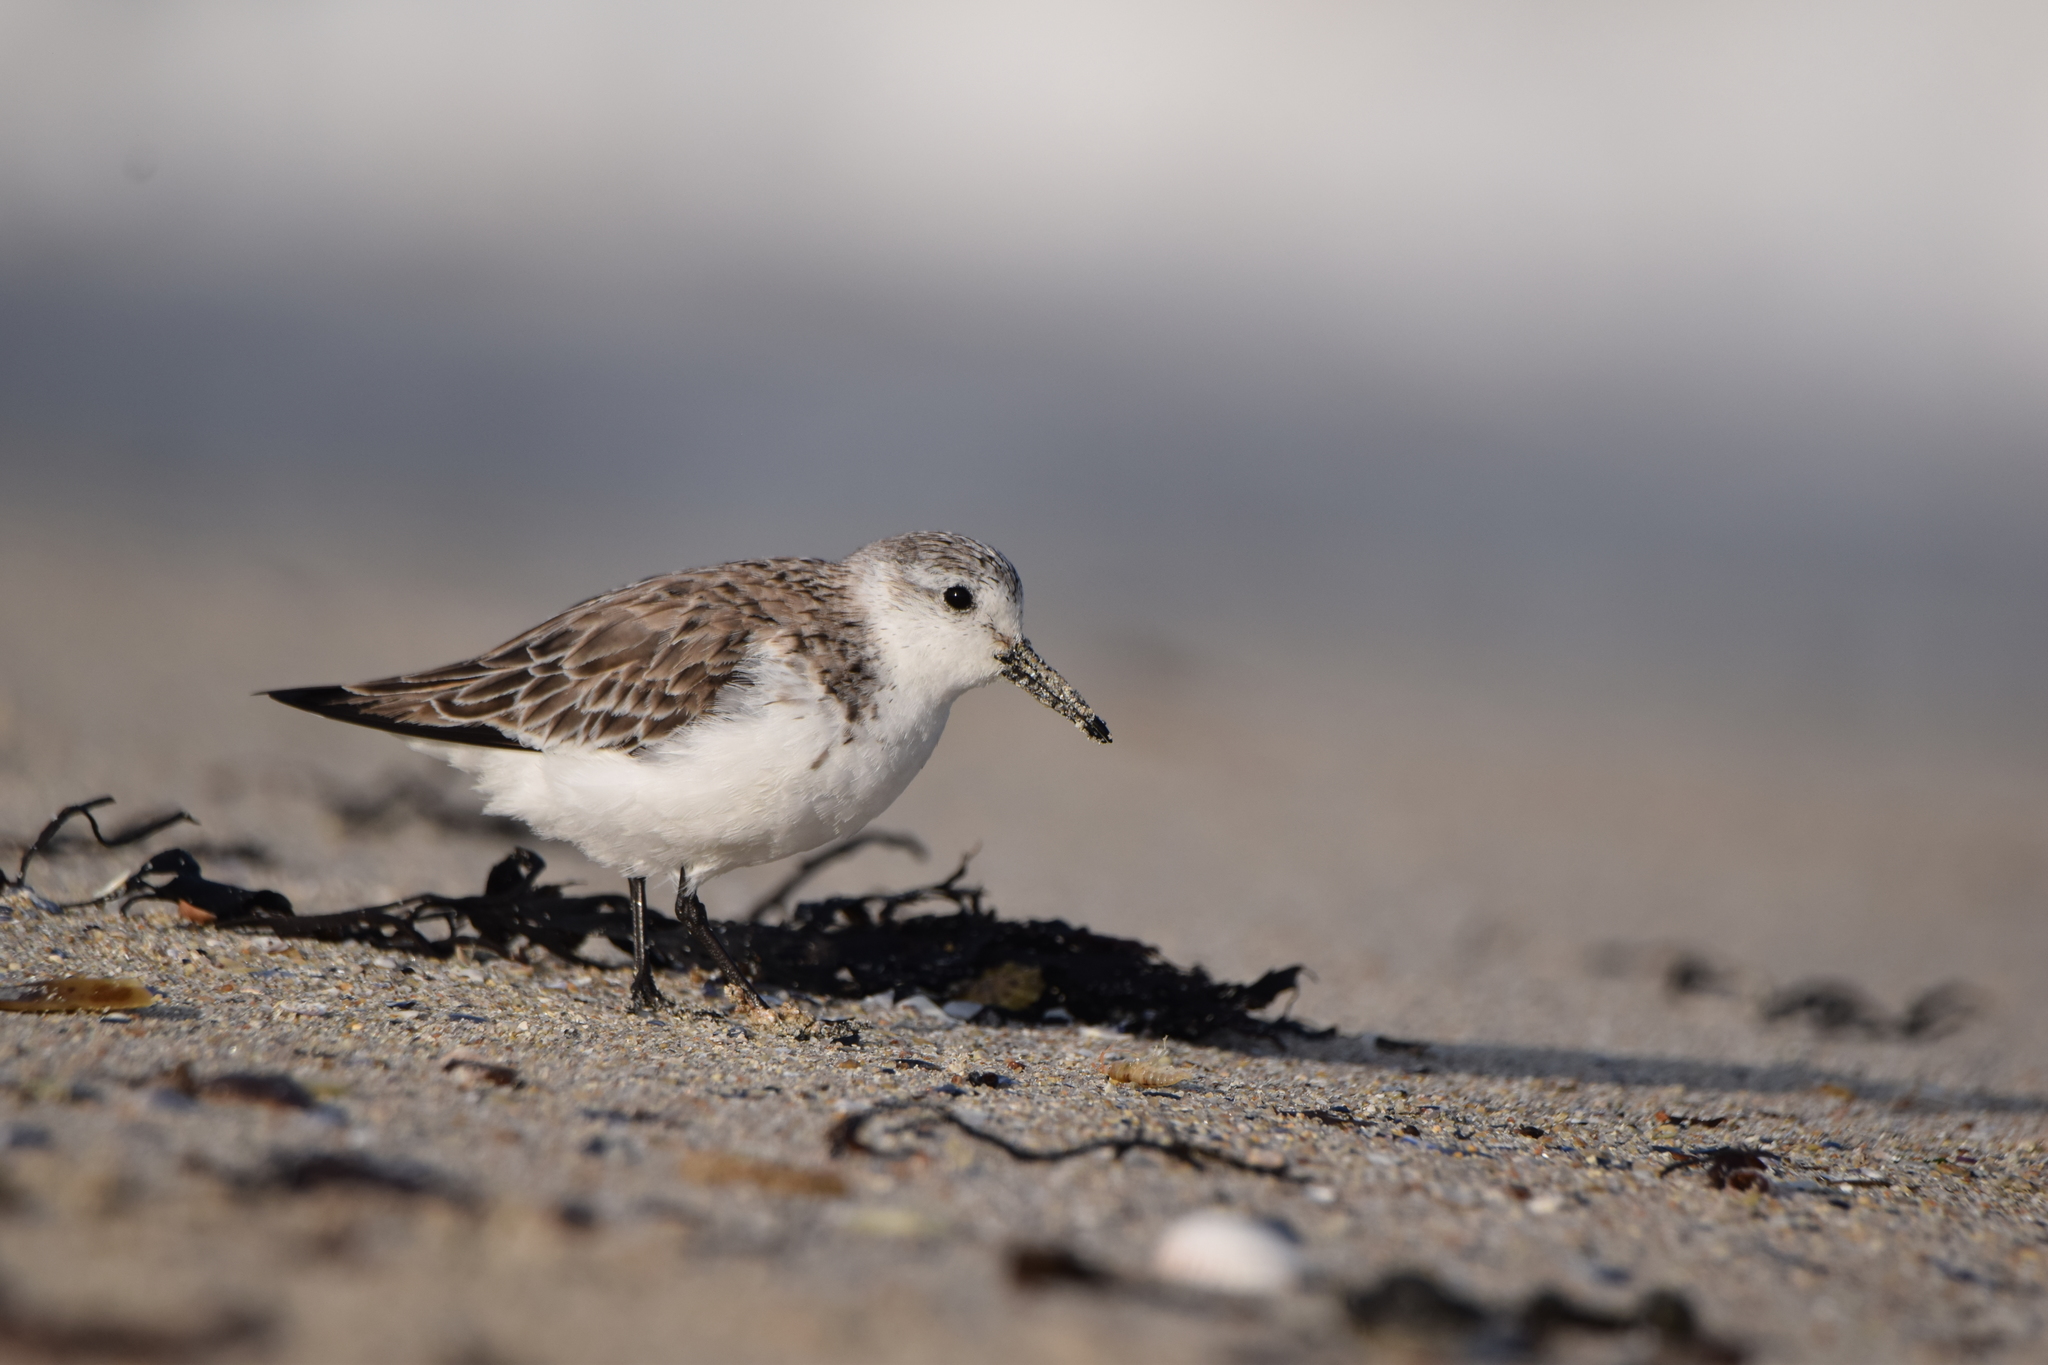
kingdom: Animalia
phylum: Chordata
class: Aves
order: Charadriiformes
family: Scolopacidae
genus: Calidris
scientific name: Calidris alba
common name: Sanderling
